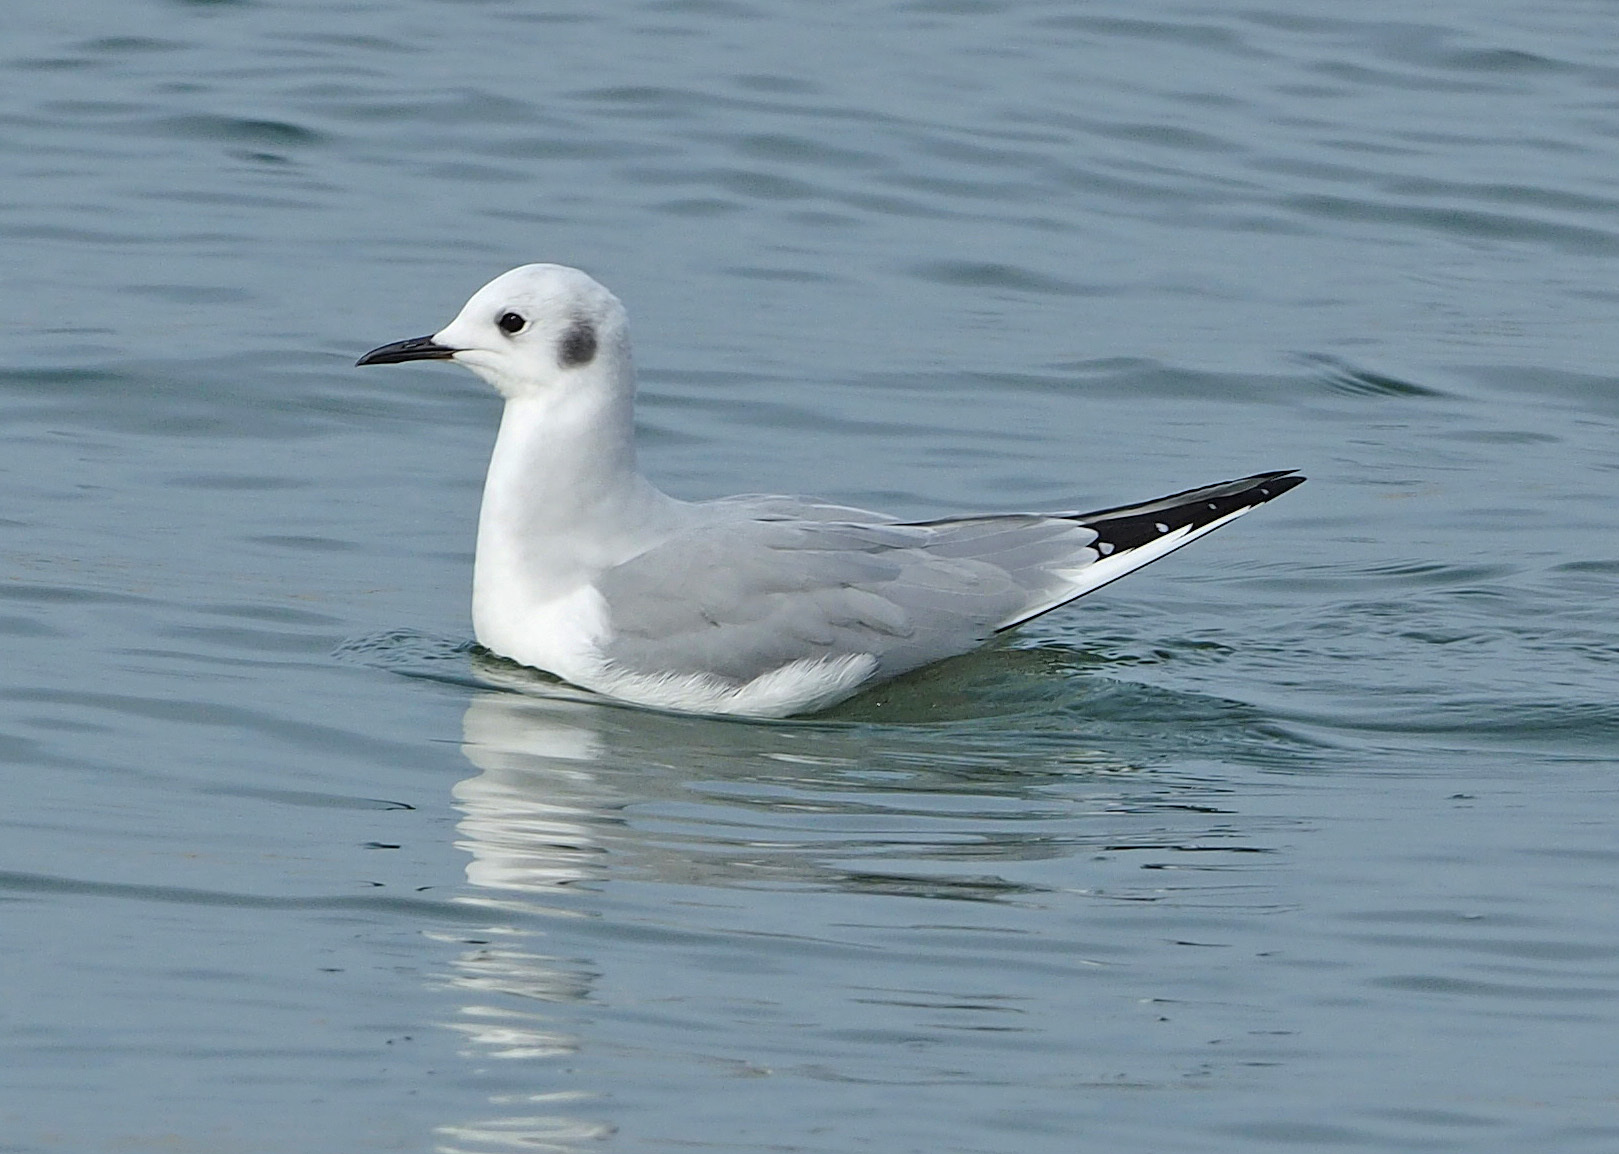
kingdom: Animalia
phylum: Chordata
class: Aves
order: Charadriiformes
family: Laridae
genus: Chroicocephalus
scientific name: Chroicocephalus philadelphia
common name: Bonaparte's gull
